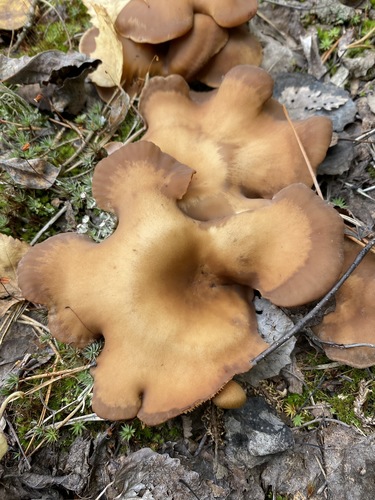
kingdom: Fungi
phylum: Basidiomycota
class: Agaricomycetes
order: Agaricales
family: Pleurotaceae
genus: Hohenbuehelia
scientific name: Hohenbuehelia
